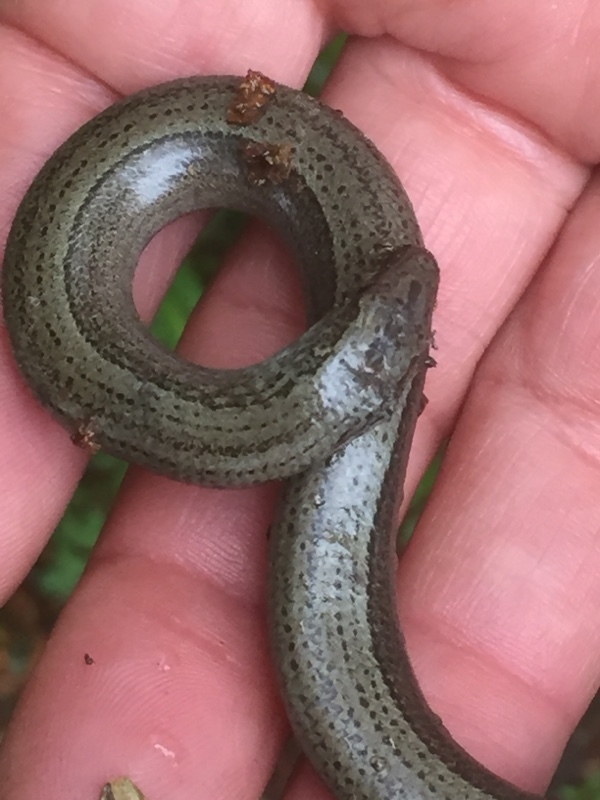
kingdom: Animalia
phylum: Chordata
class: Squamata
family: Anguidae
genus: Anguis
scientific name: Anguis fragilis
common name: Slow worm
